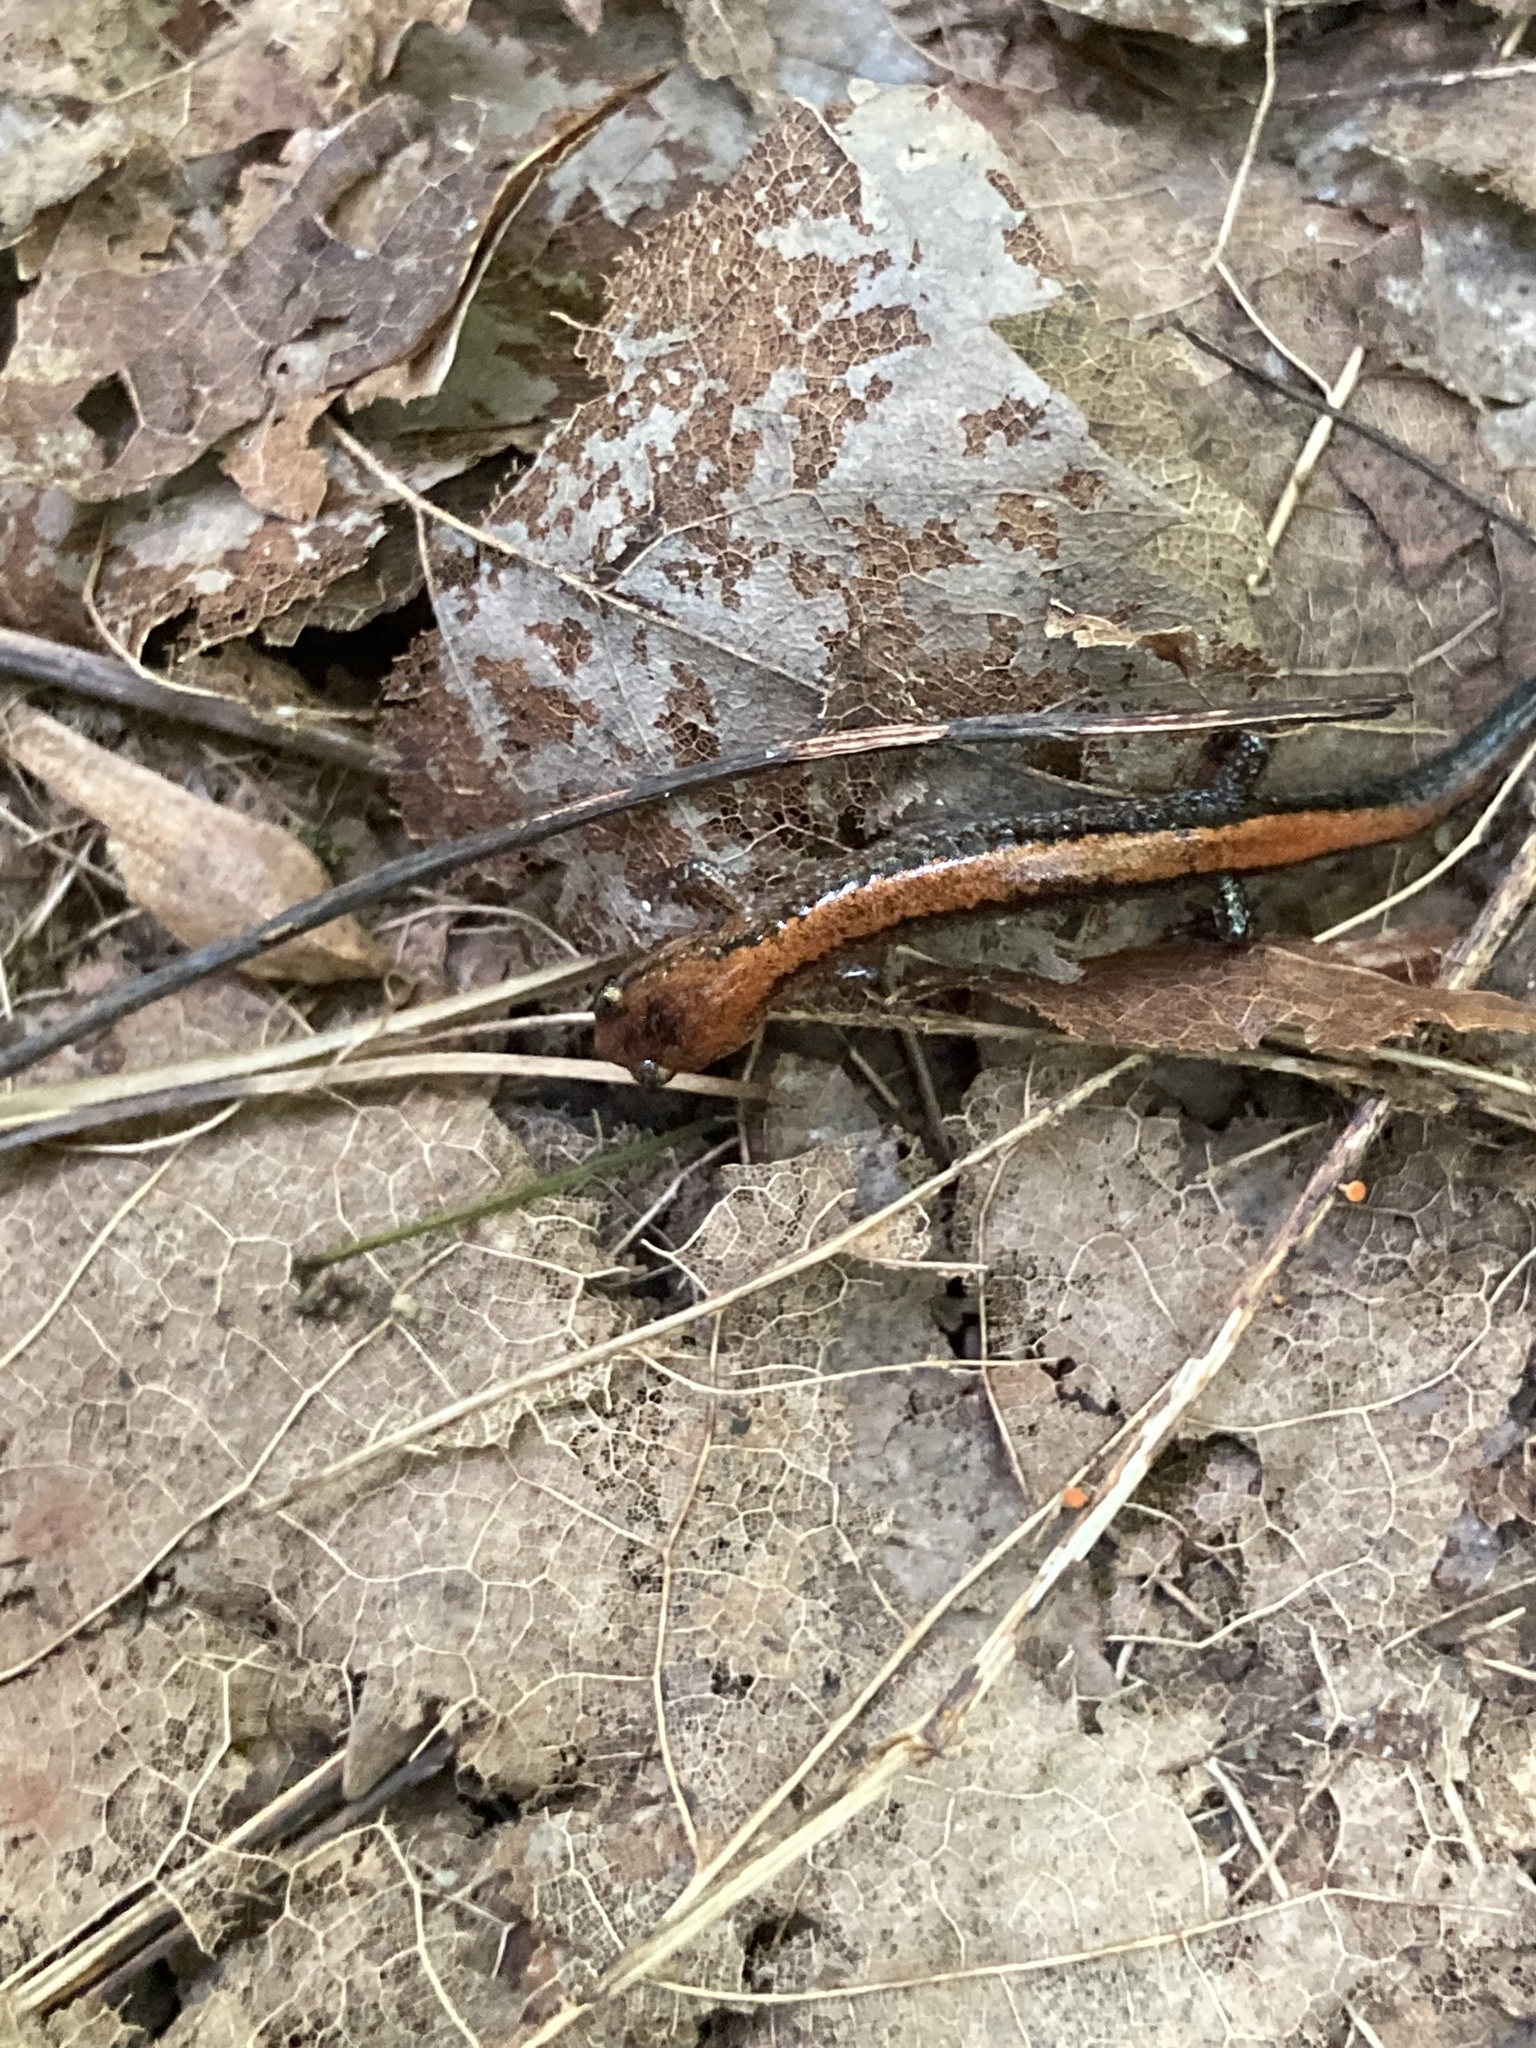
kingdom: Animalia
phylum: Chordata
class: Amphibia
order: Caudata
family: Plethodontidae
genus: Plethodon
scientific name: Plethodon cinereus
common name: Redback salamander
